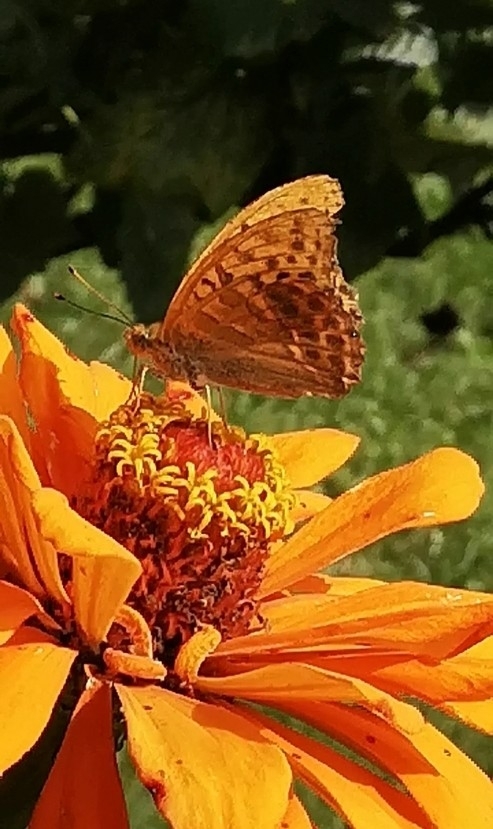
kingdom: Animalia
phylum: Arthropoda
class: Insecta
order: Lepidoptera
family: Nymphalidae
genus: Argynnis
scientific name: Argynnis paphia
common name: Silver-washed fritillary
